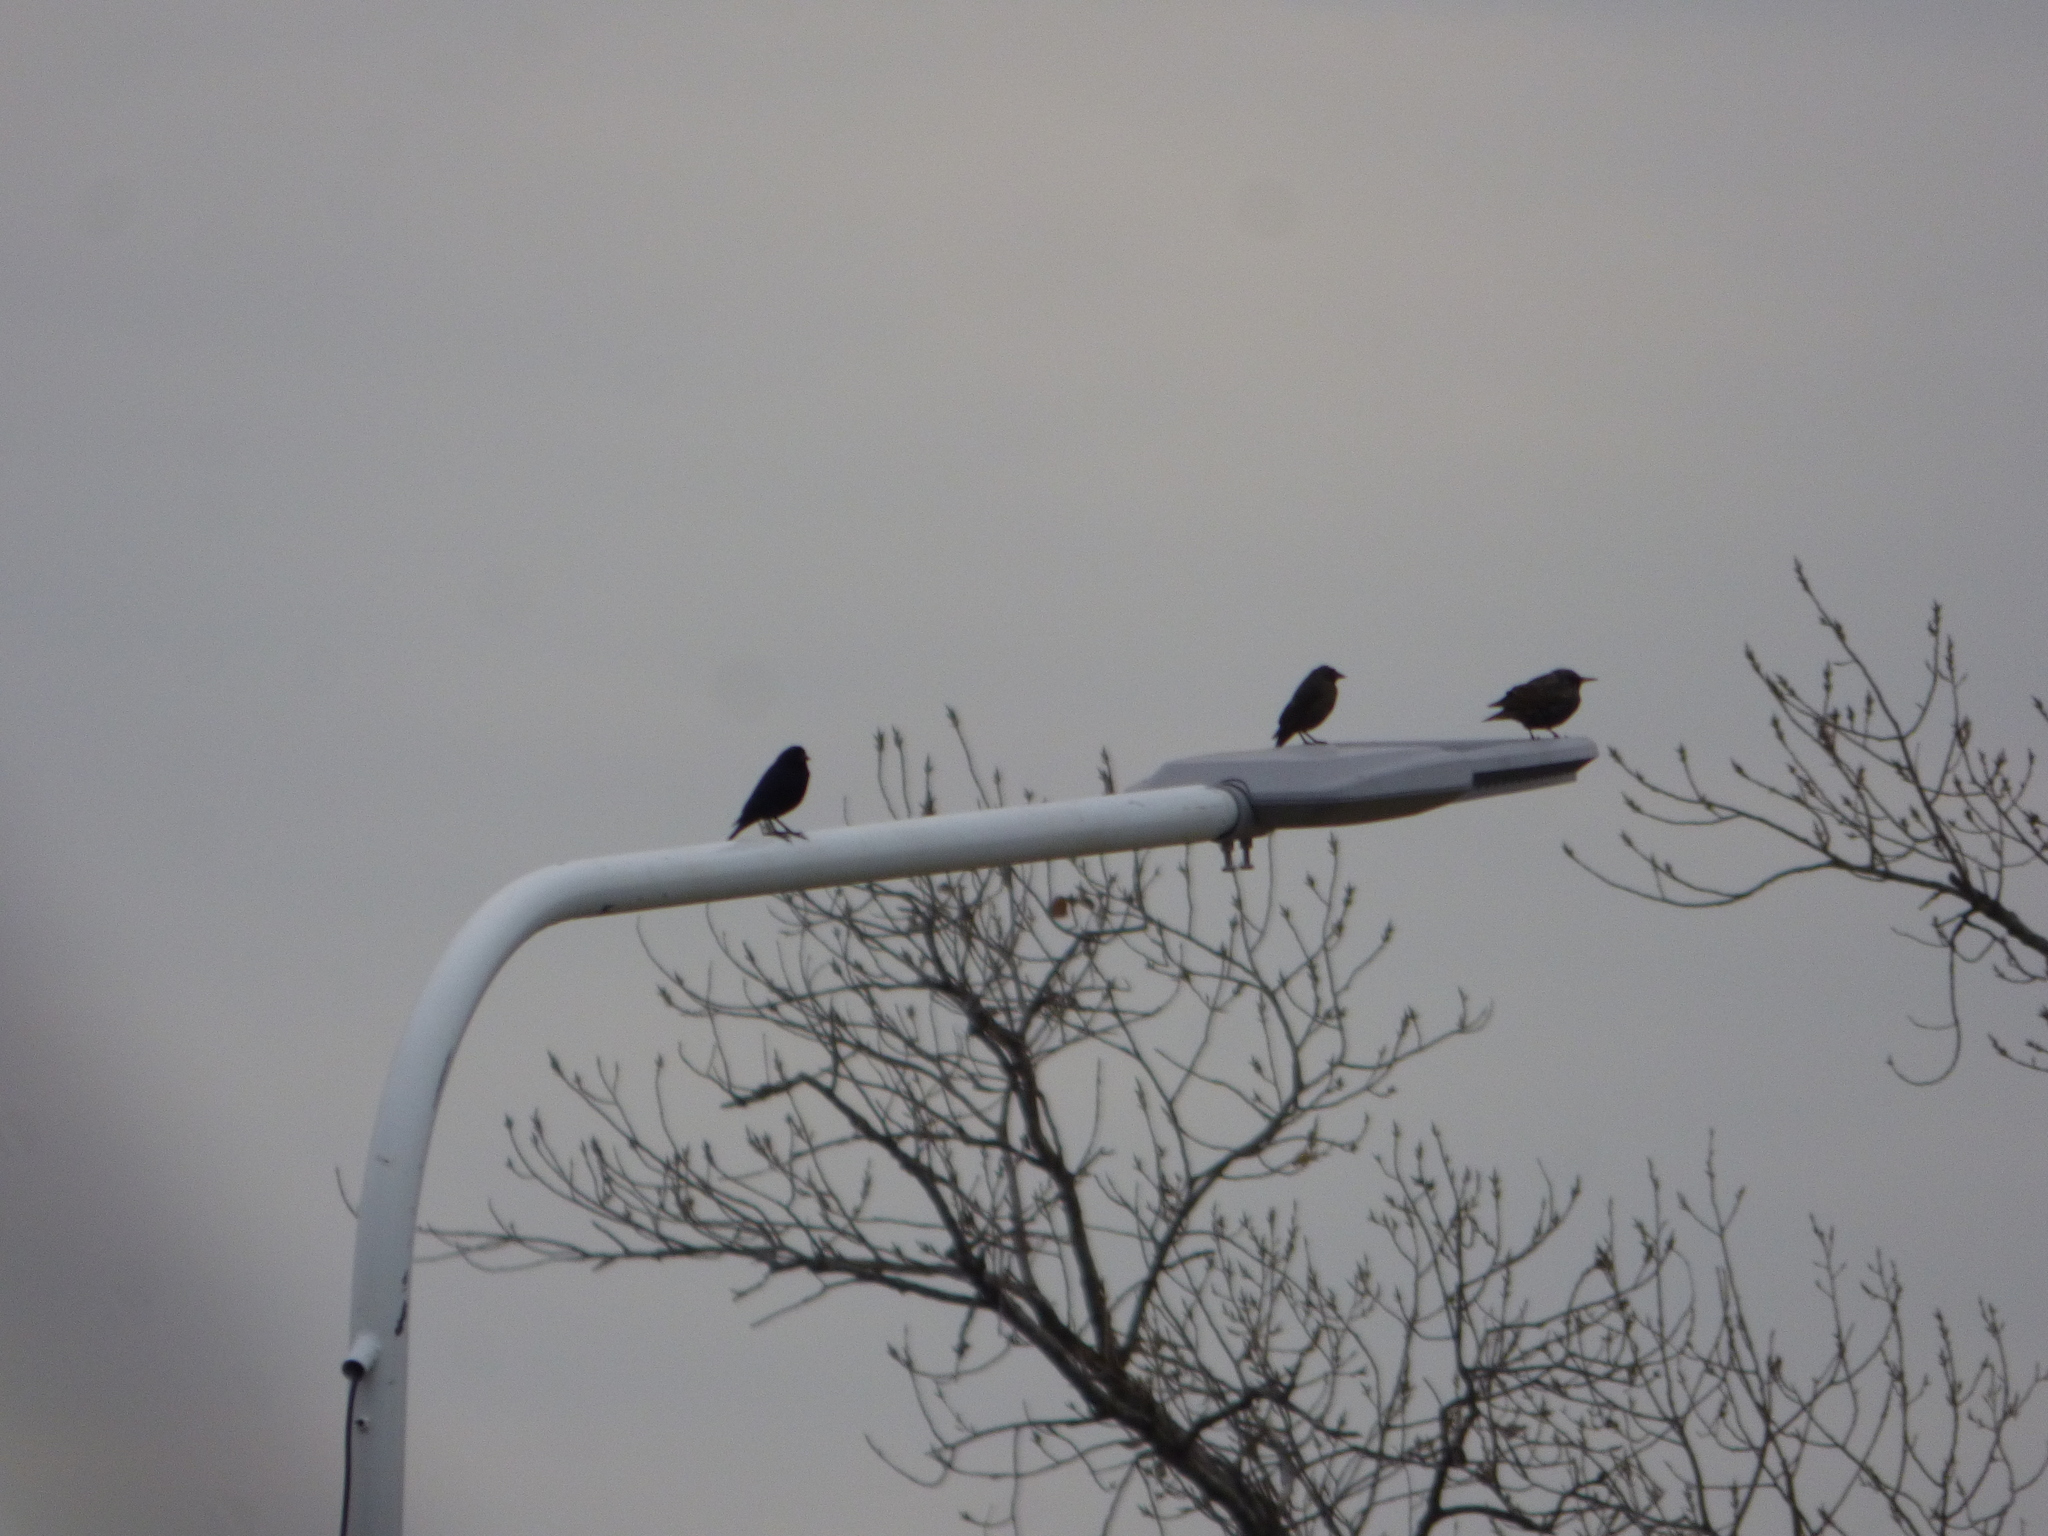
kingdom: Animalia
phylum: Chordata
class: Aves
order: Passeriformes
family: Sturnidae
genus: Sturnus
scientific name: Sturnus vulgaris
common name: Common starling
